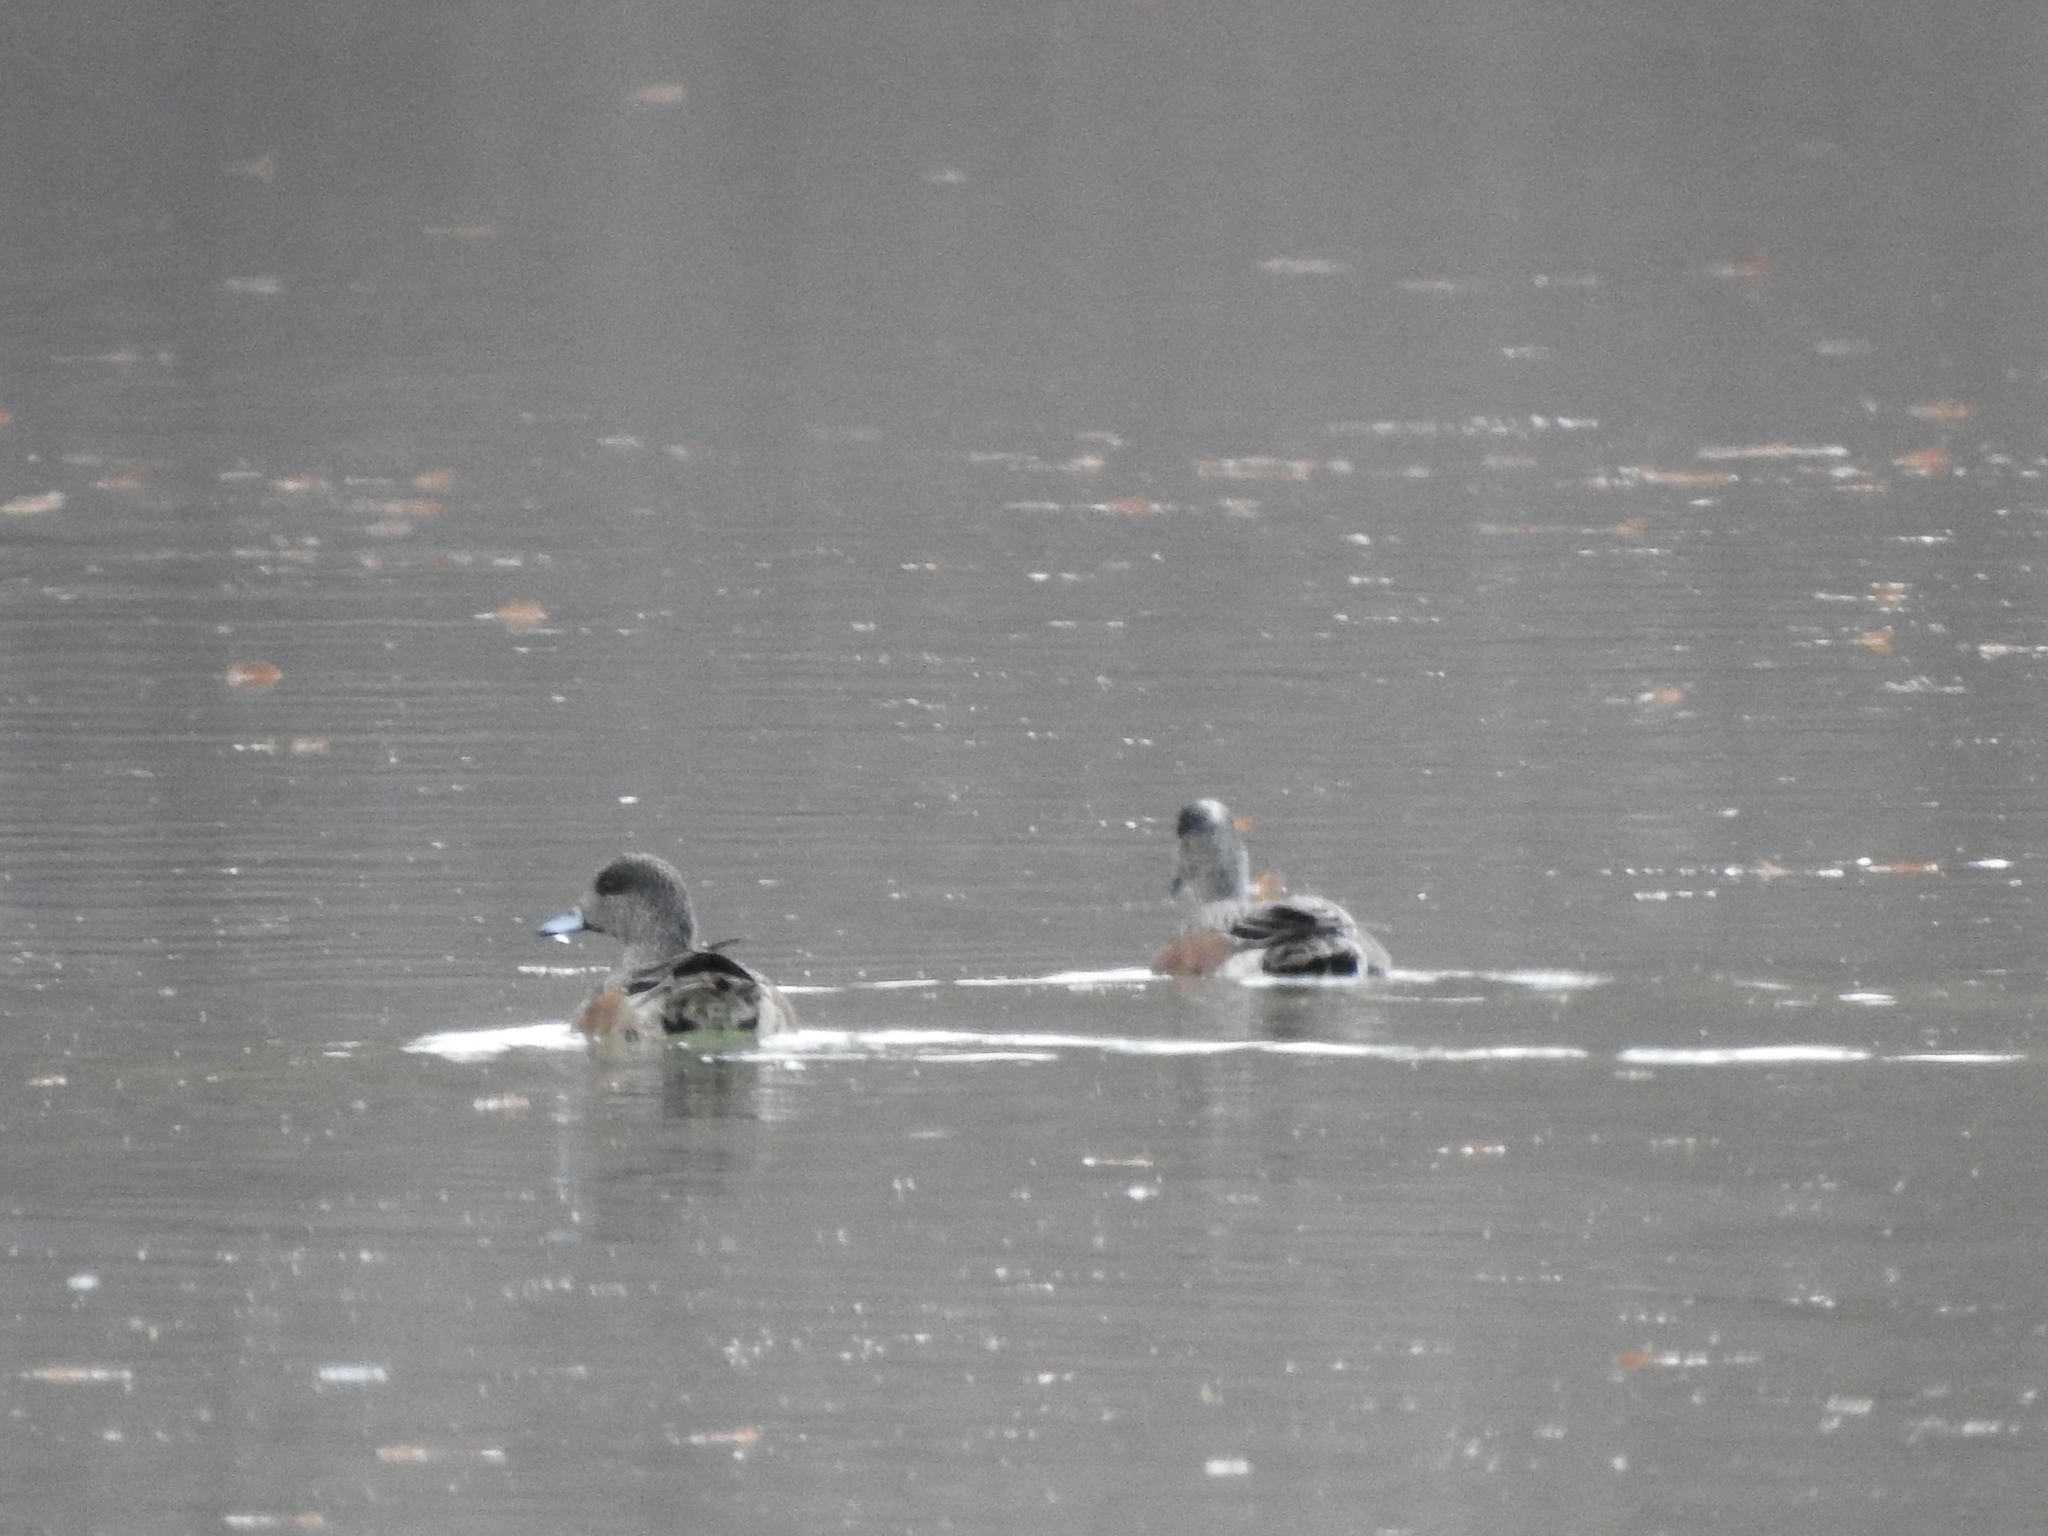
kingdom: Animalia
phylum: Chordata
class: Aves
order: Anseriformes
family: Anatidae
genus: Mareca
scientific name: Mareca americana
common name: American wigeon
